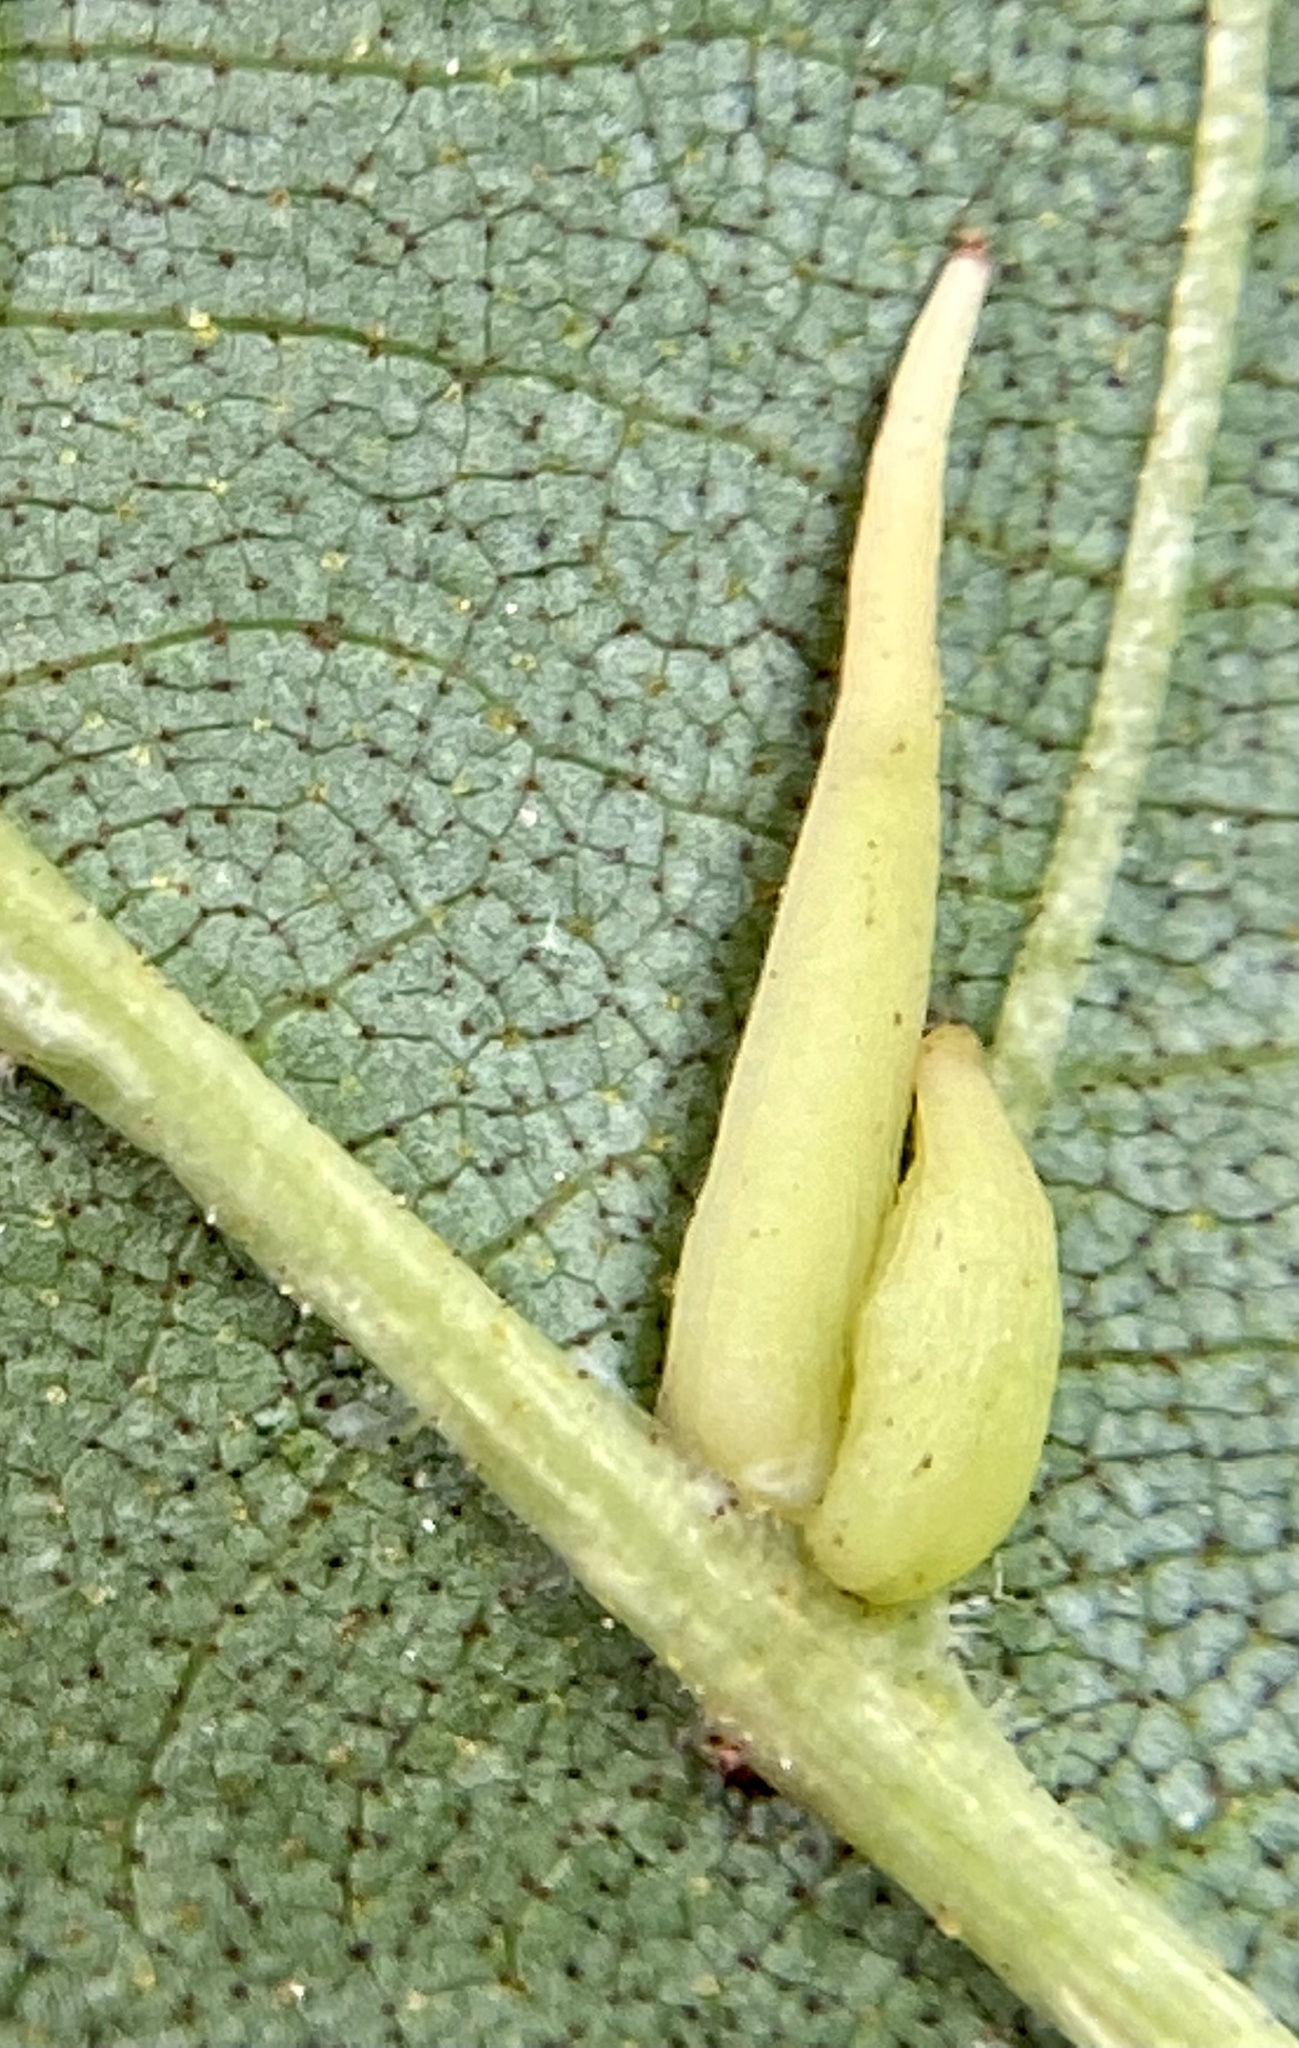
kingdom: Animalia
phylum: Arthropoda
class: Insecta
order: Diptera
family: Cecidomyiidae
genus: Caryomyia
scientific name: Caryomyia
